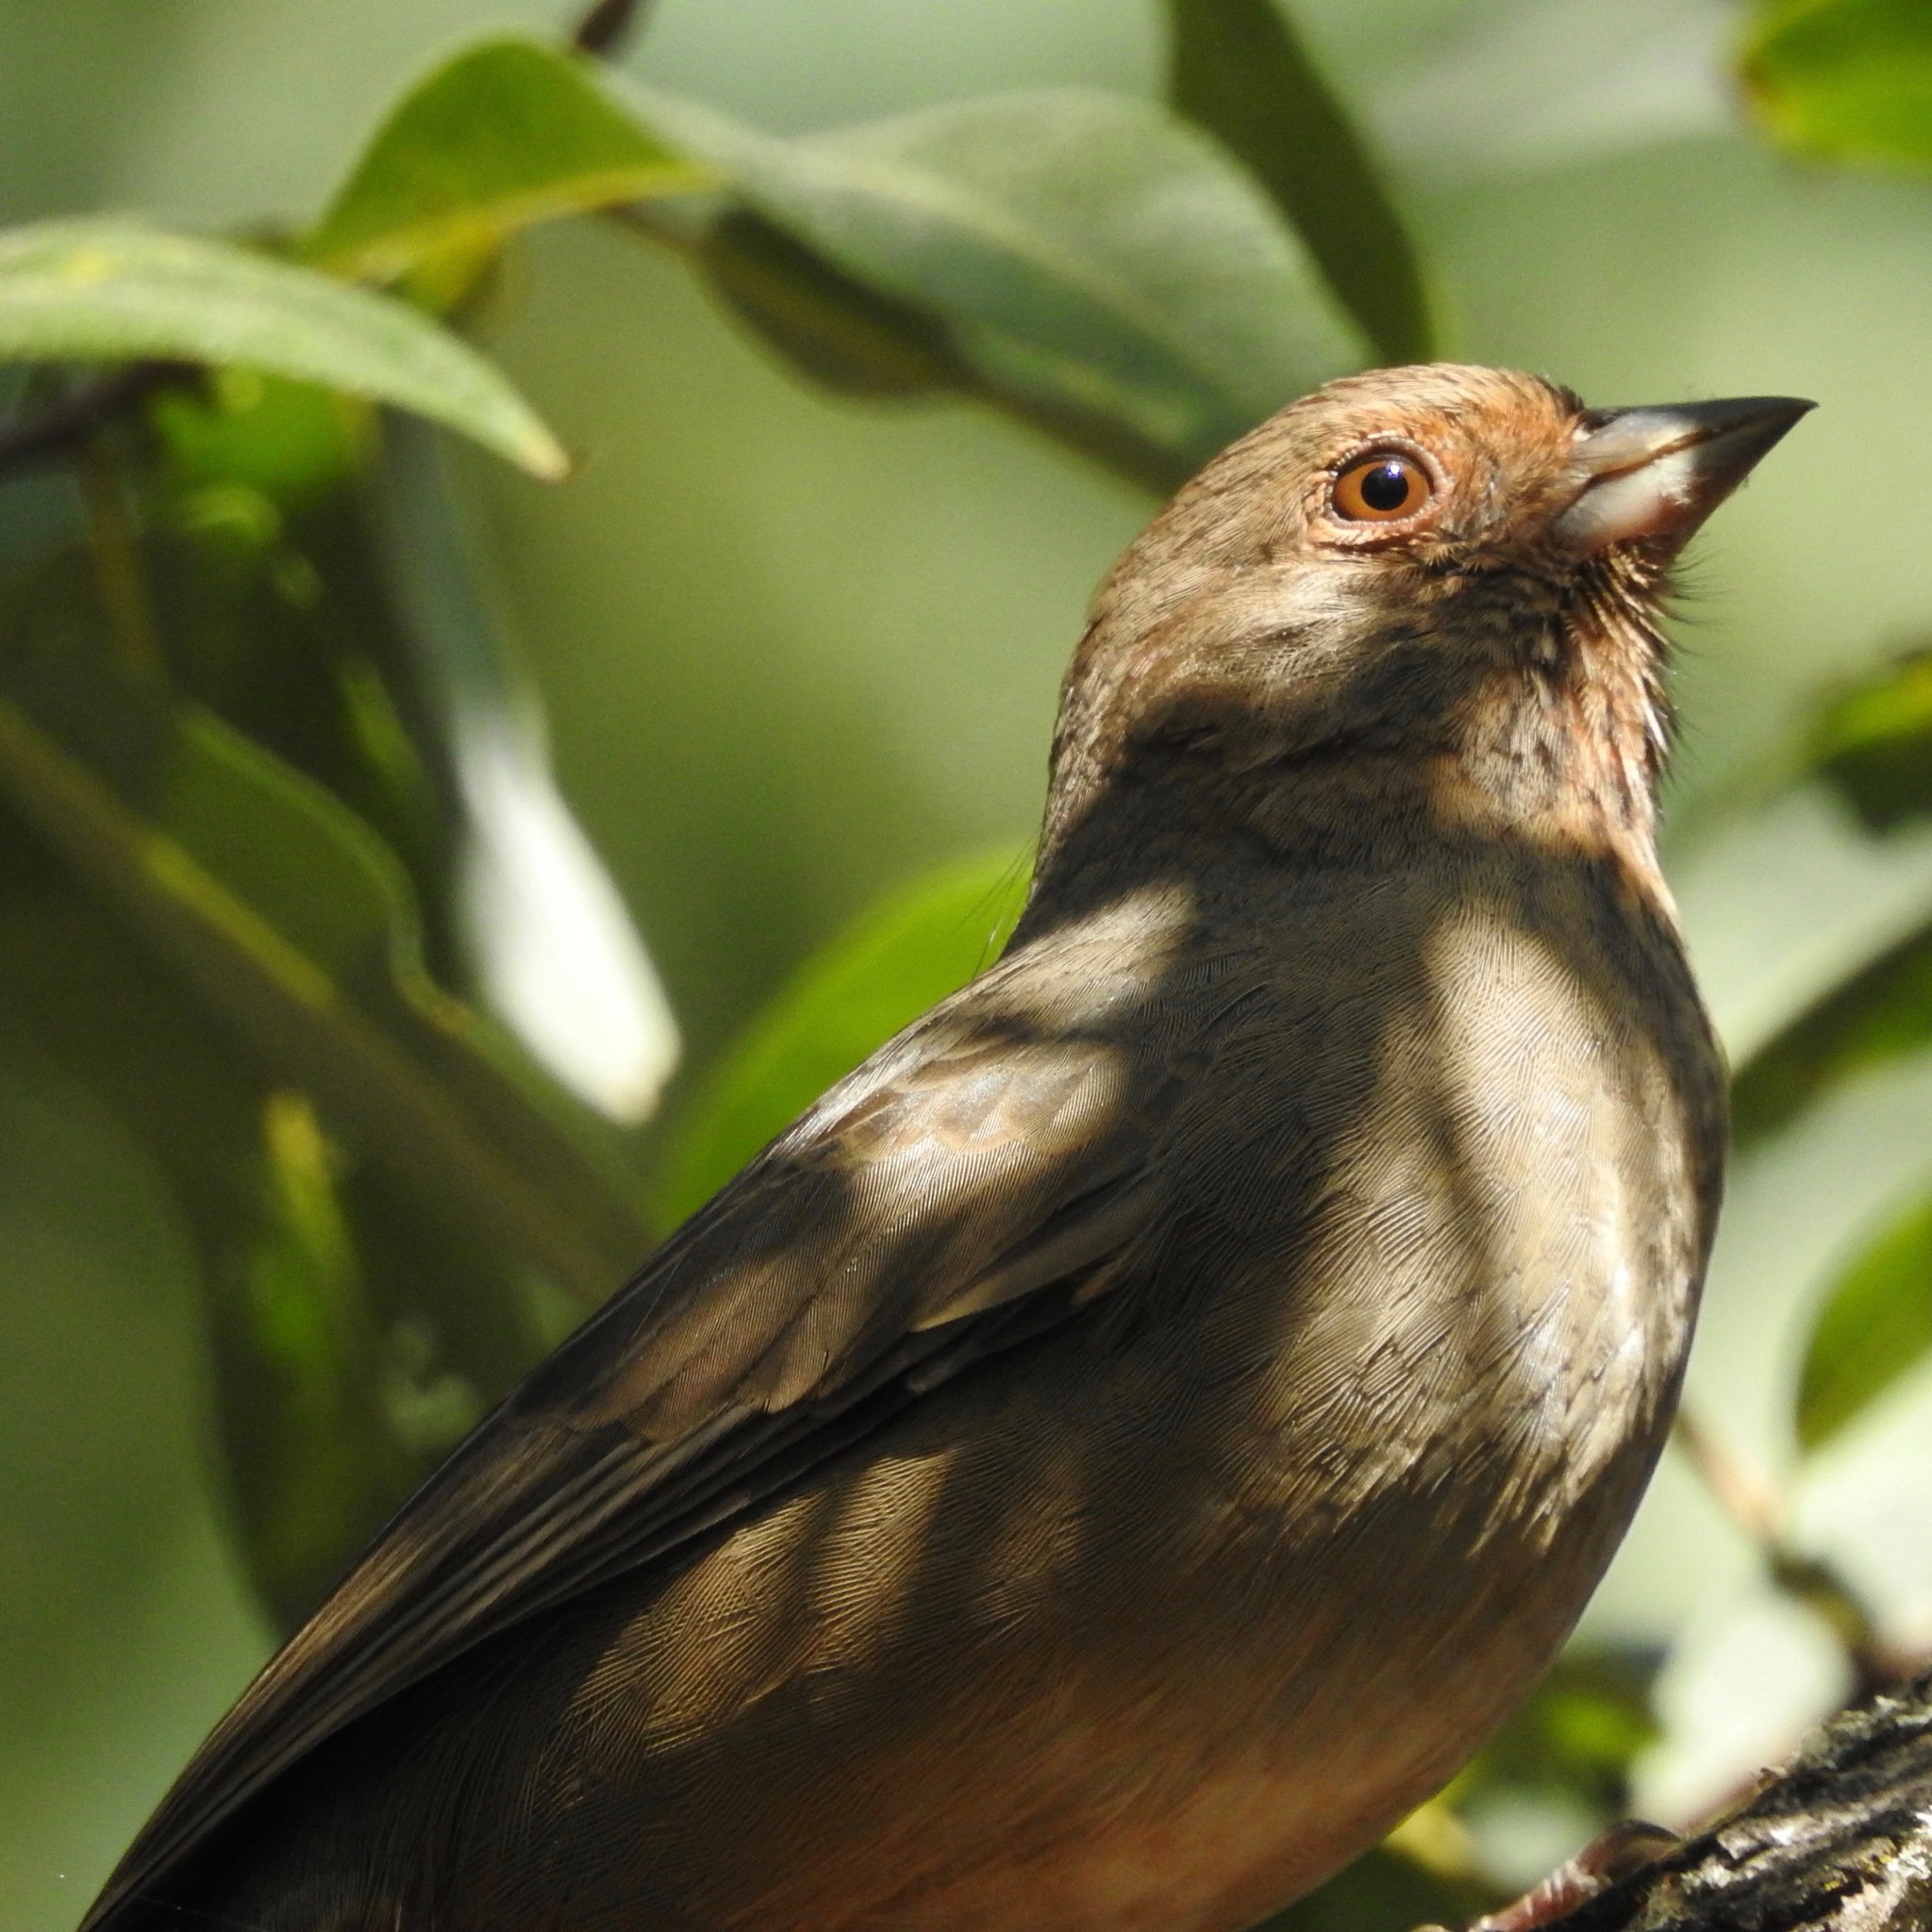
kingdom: Animalia
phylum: Chordata
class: Aves
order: Passeriformes
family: Passerellidae
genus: Melozone
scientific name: Melozone crissalis
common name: California towhee
